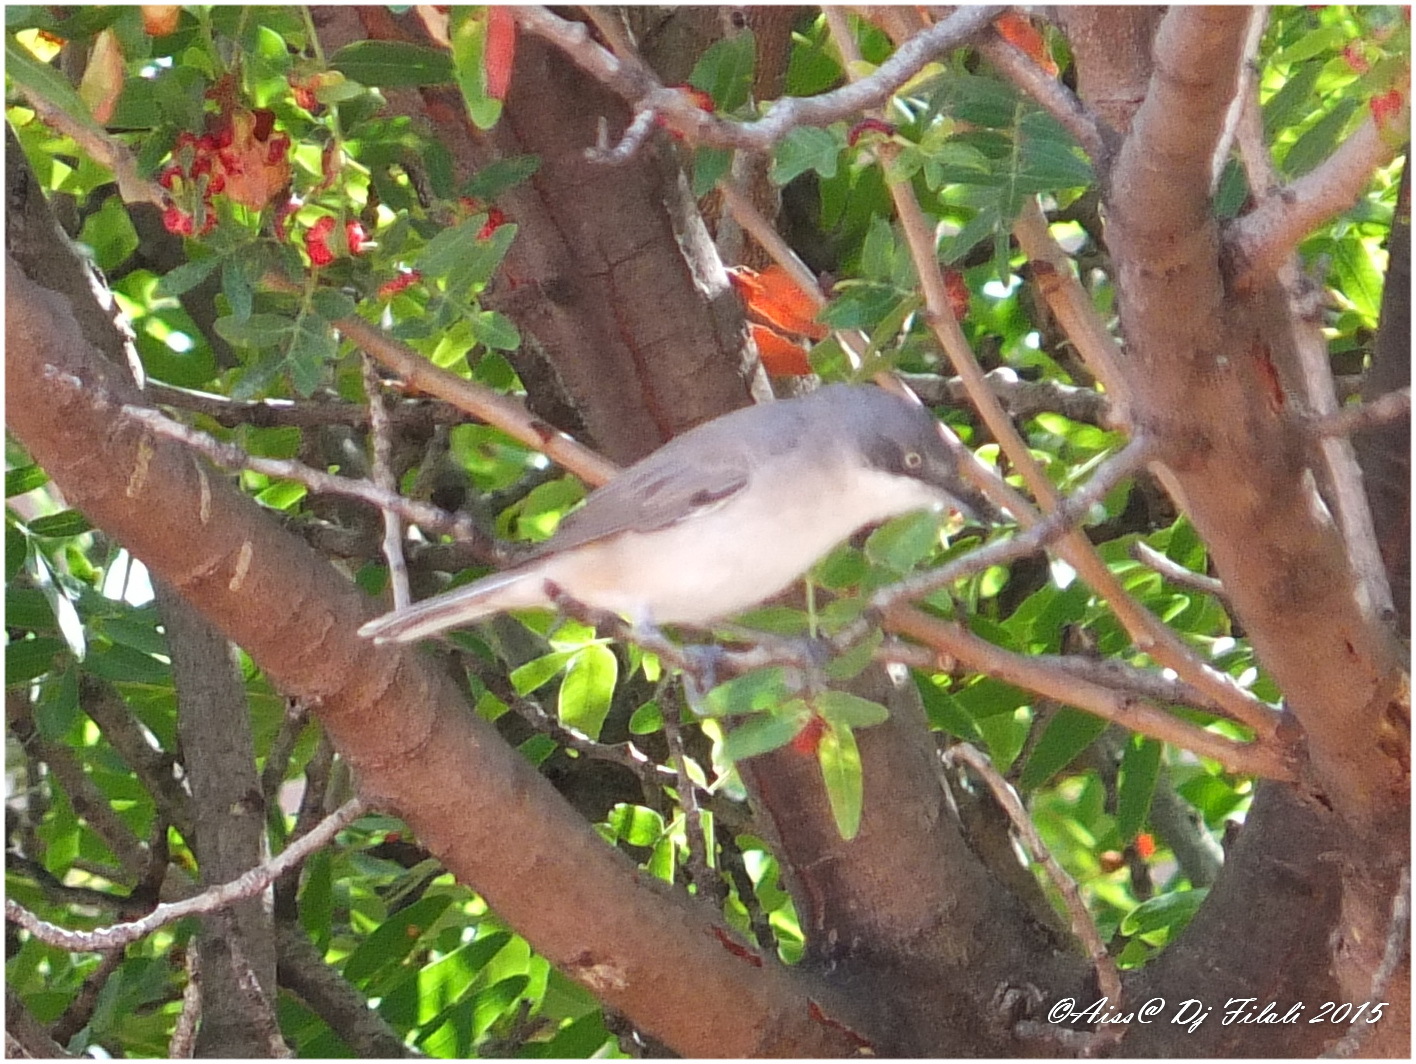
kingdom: Animalia
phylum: Chordata
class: Aves
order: Passeriformes
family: Sylviidae
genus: Sylvia
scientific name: Sylvia hortensis
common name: Orphean warbler
